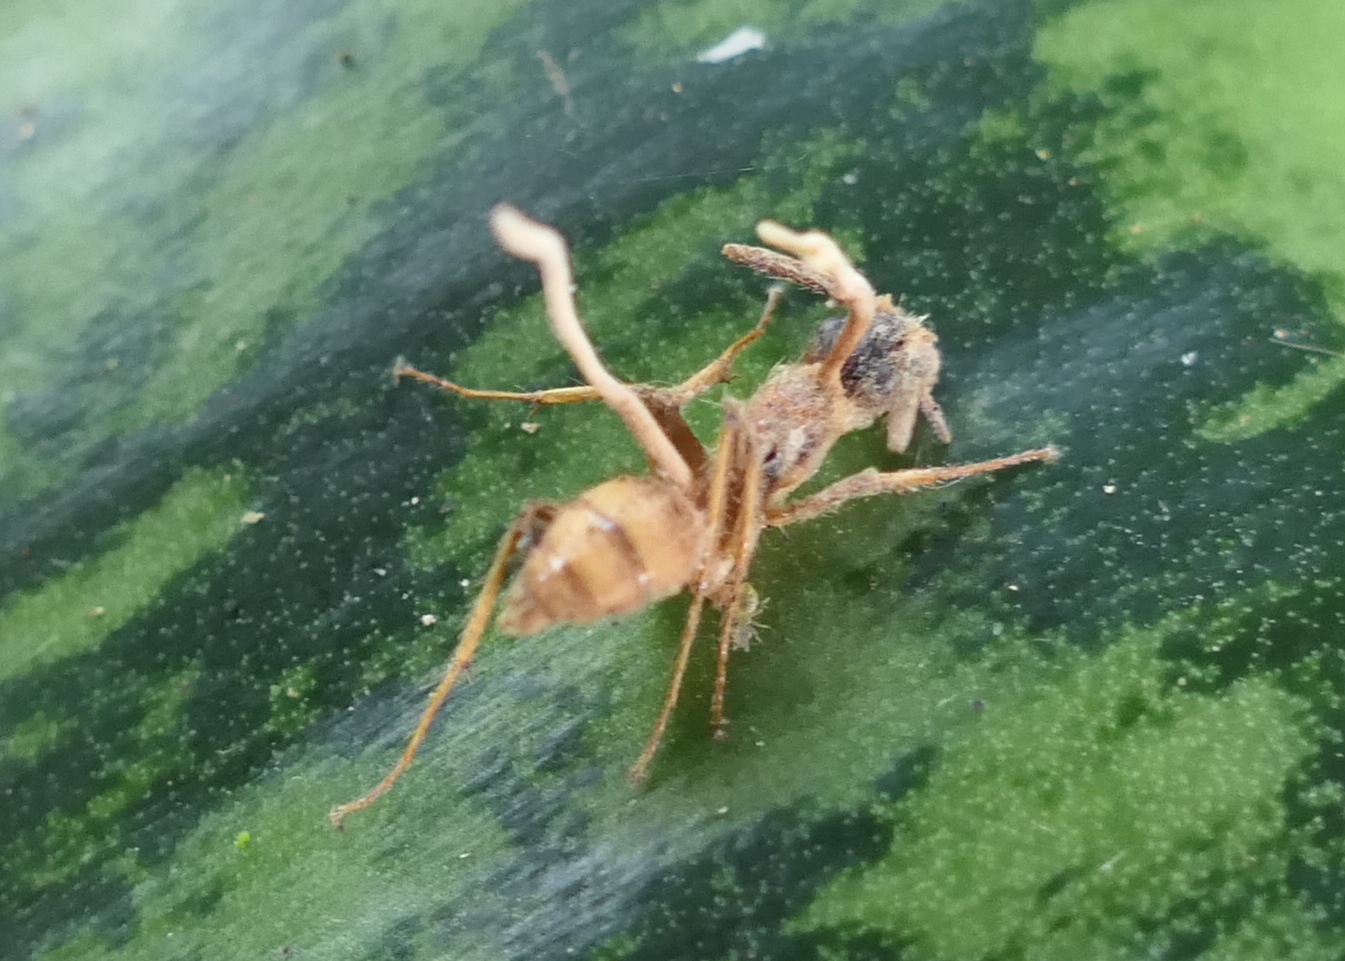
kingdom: Fungi
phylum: Ascomycota
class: Sordariomycetes
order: Hypocreales
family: Ophiocordycipitaceae
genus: Ophiocordyceps
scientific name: Ophiocordyceps lloydii
